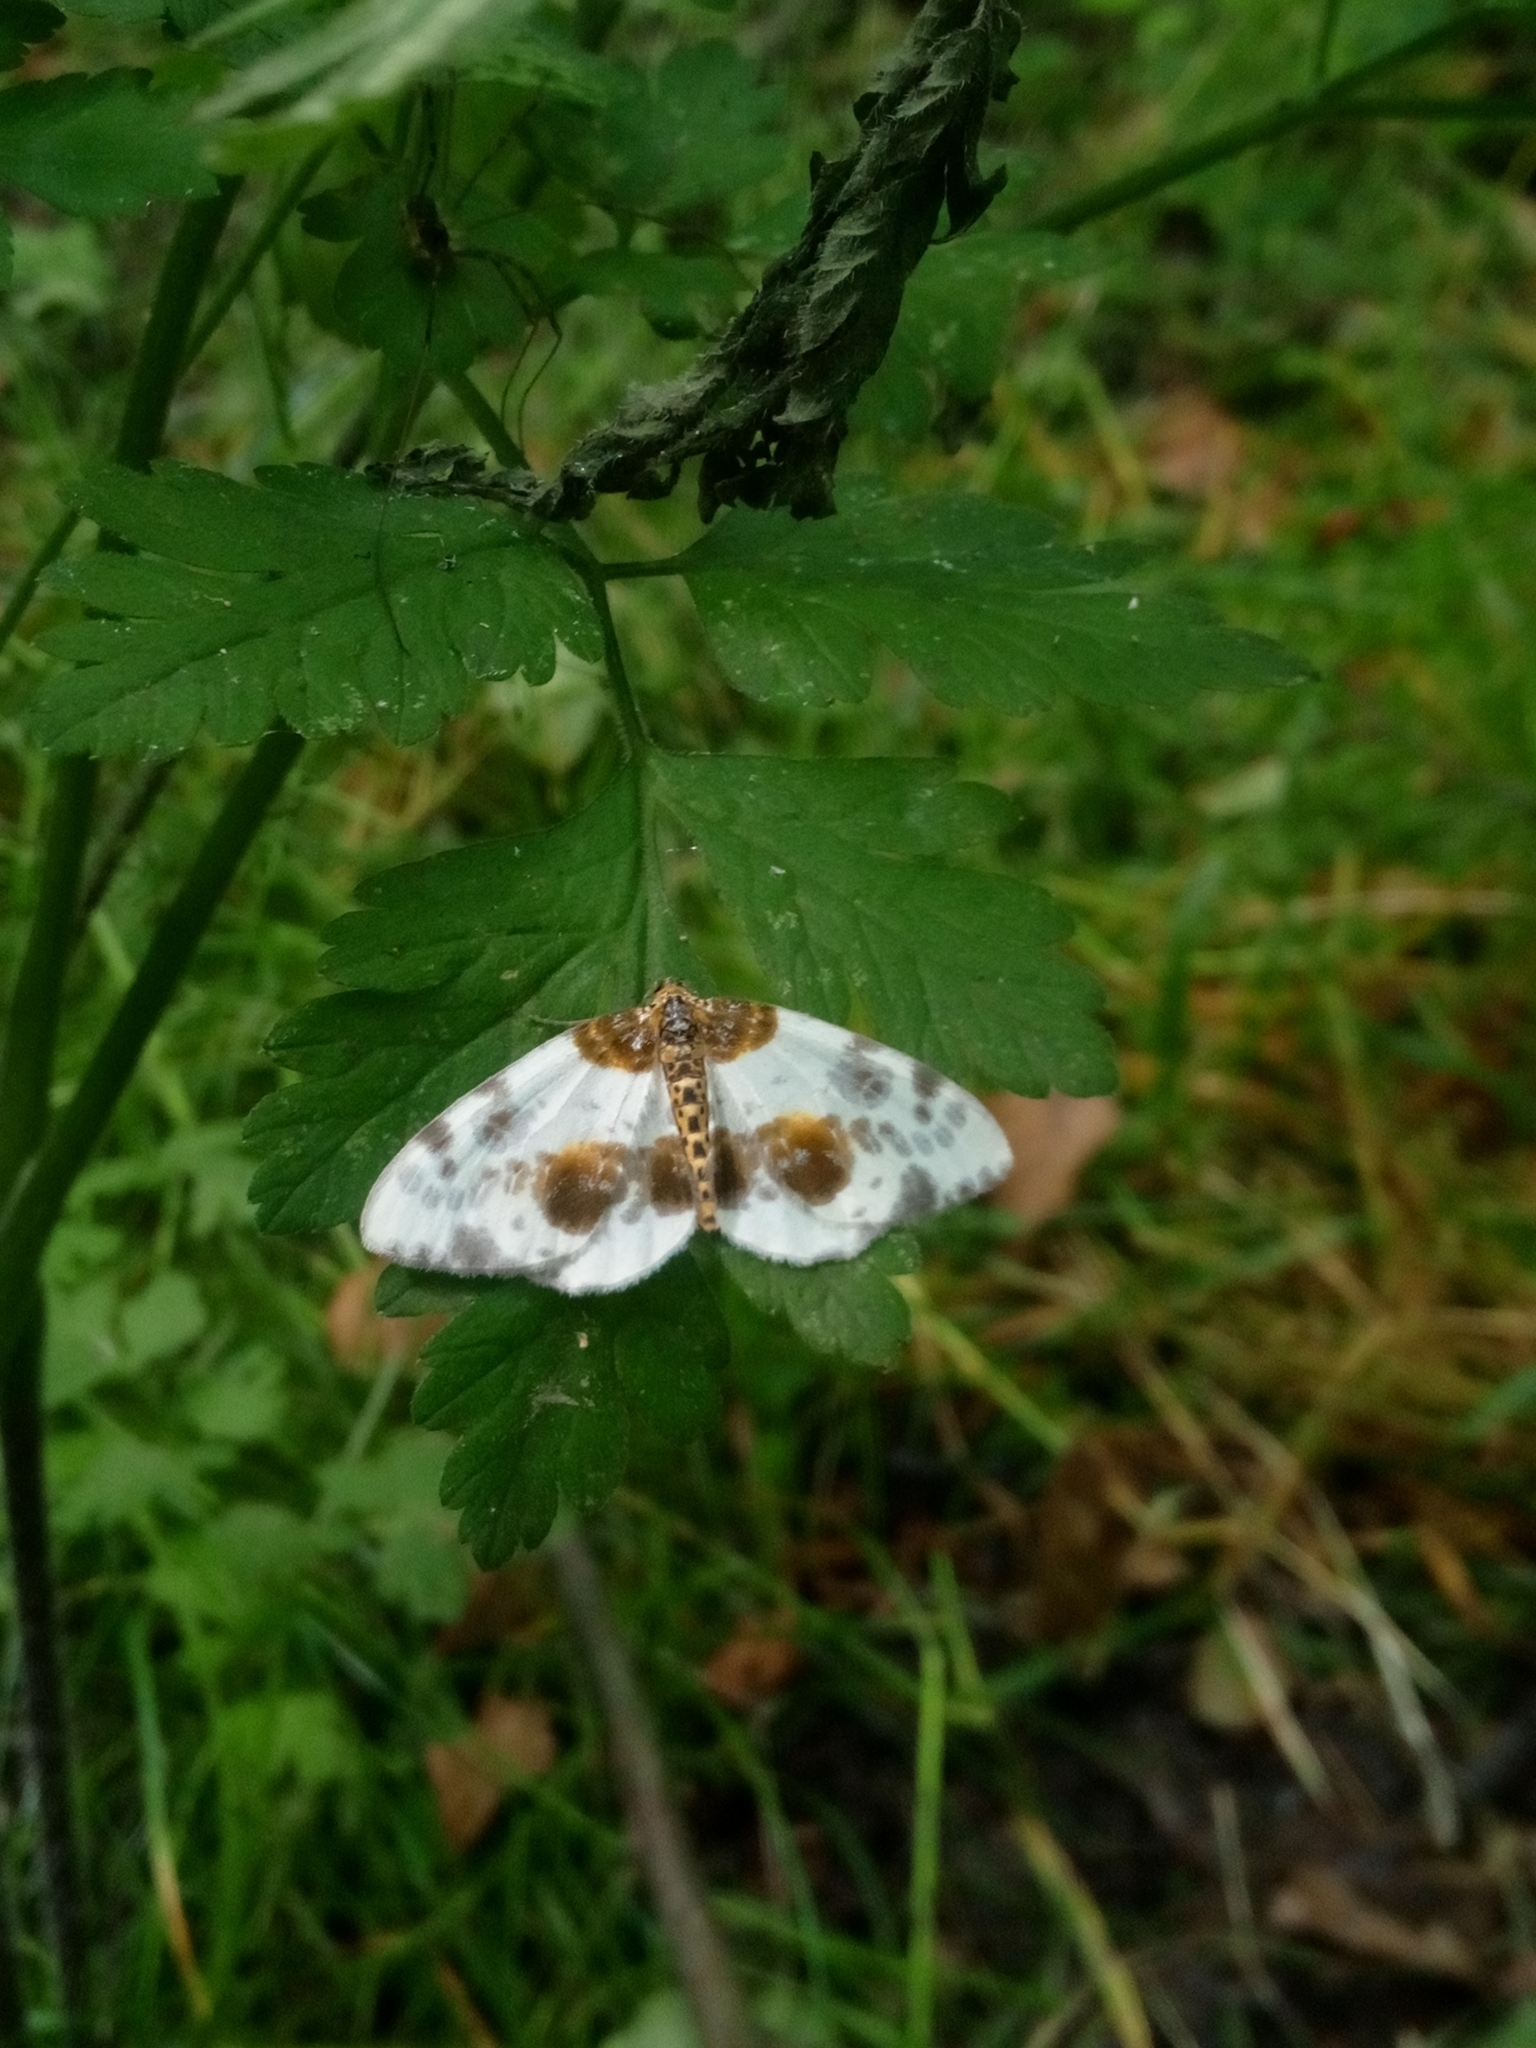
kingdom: Animalia
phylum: Arthropoda
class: Insecta
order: Lepidoptera
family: Geometridae
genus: Abraxas
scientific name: Abraxas sylvata
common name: Clouded magpie
